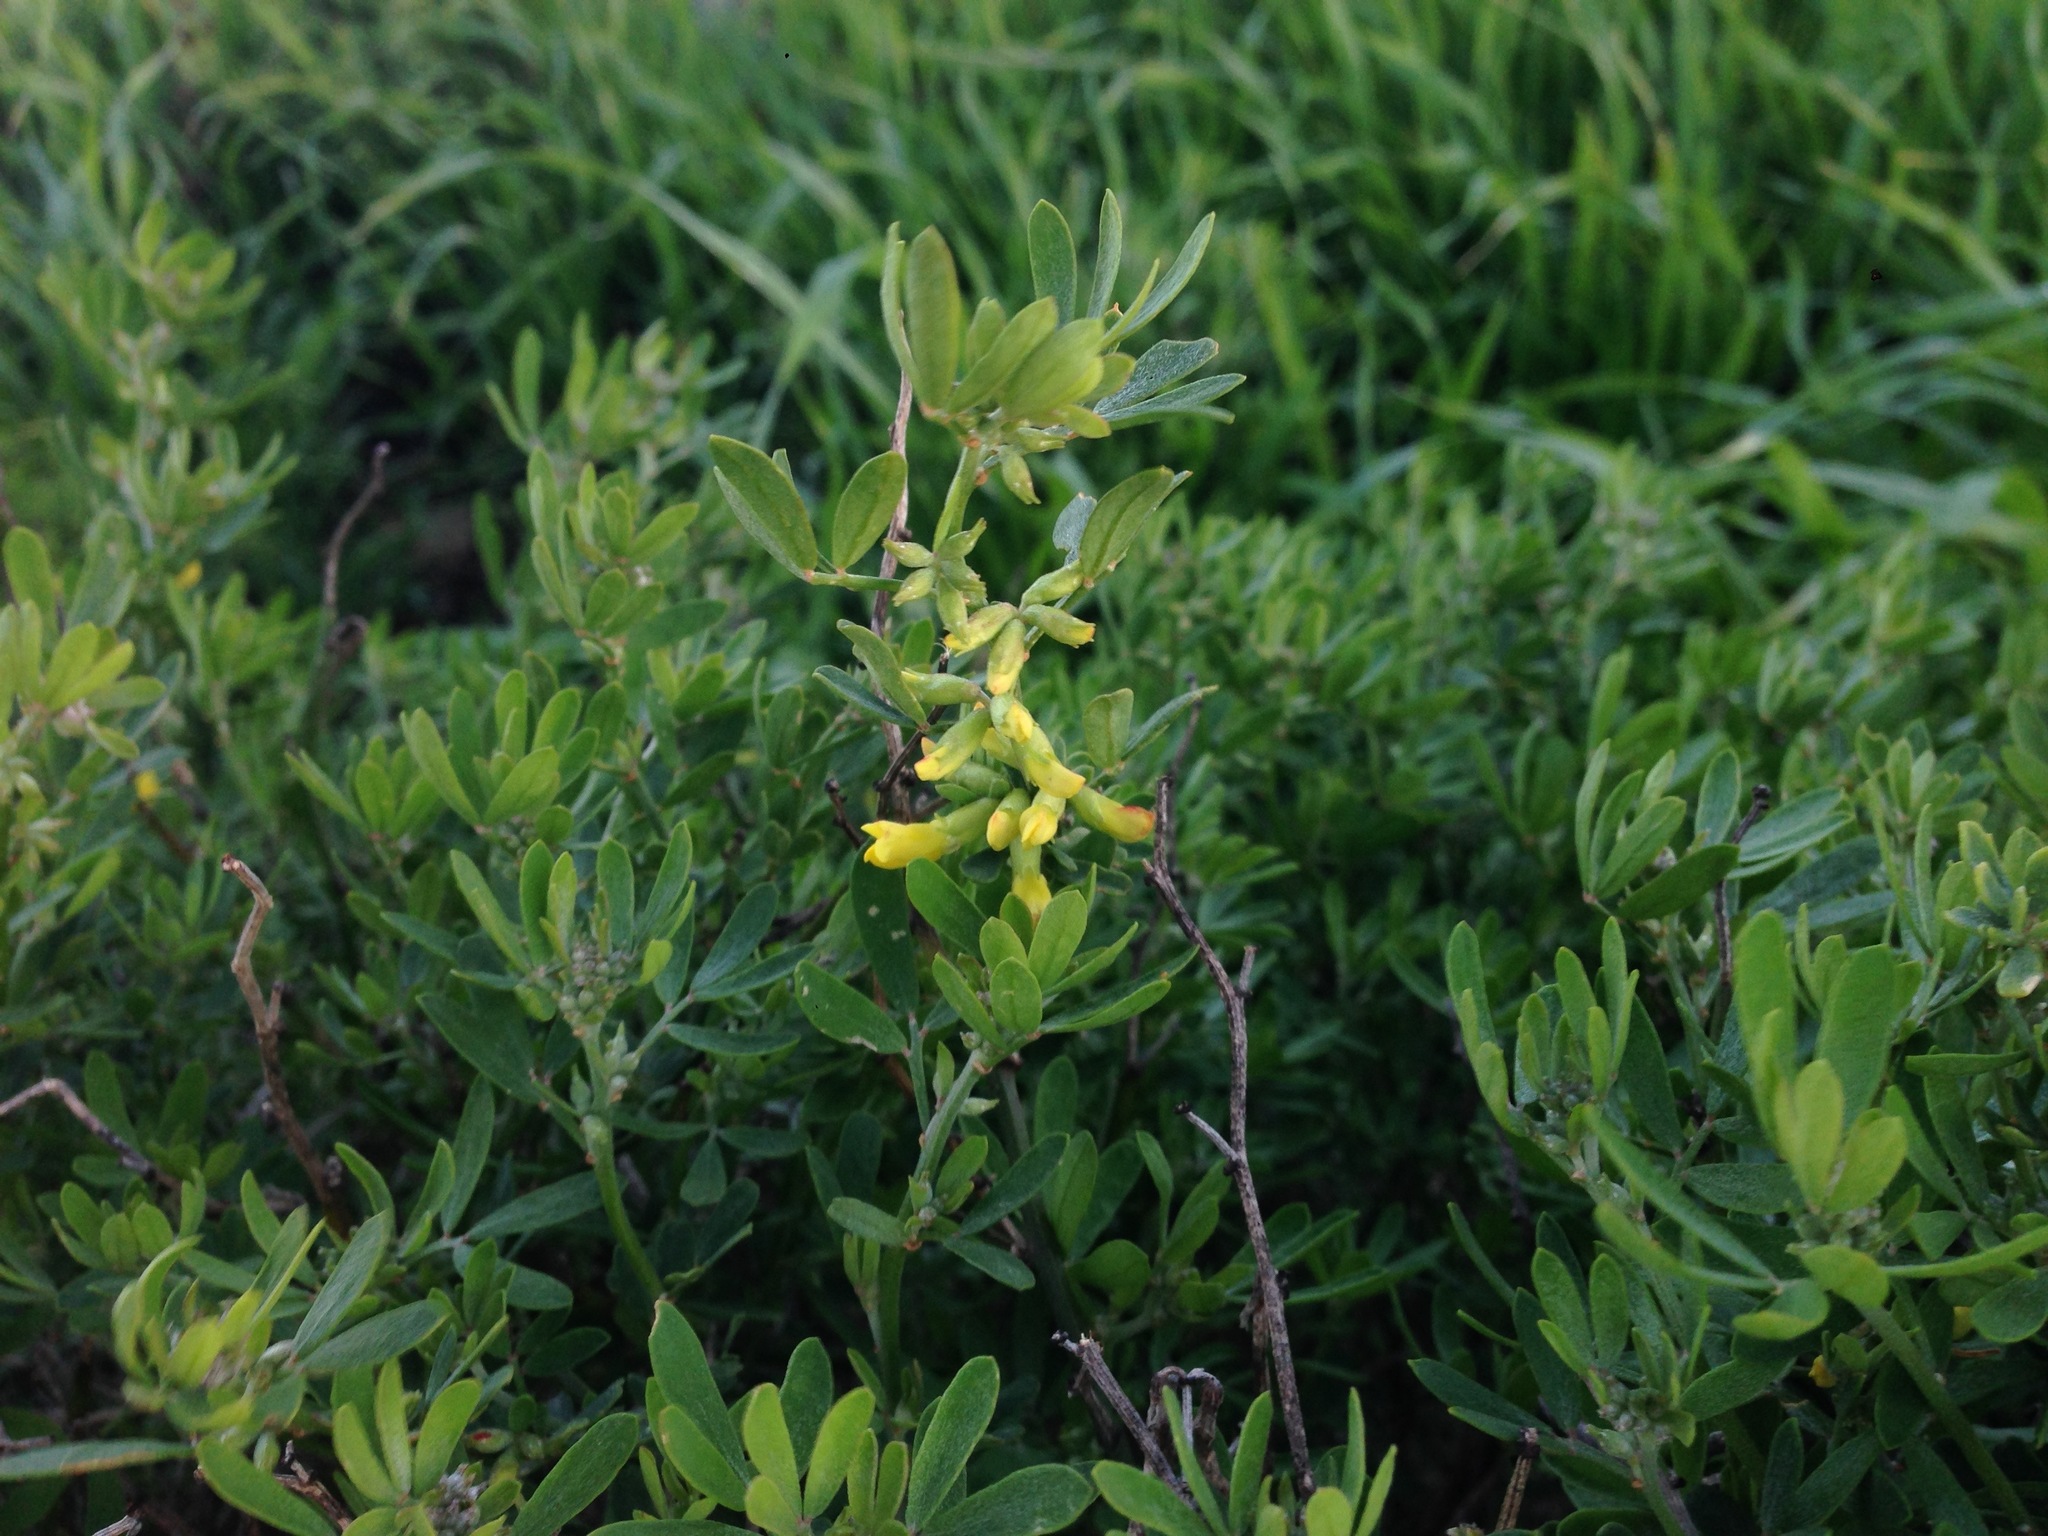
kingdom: Plantae
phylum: Tracheophyta
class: Magnoliopsida
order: Fabales
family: Fabaceae
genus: Acmispon
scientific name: Acmispon dendroideus
